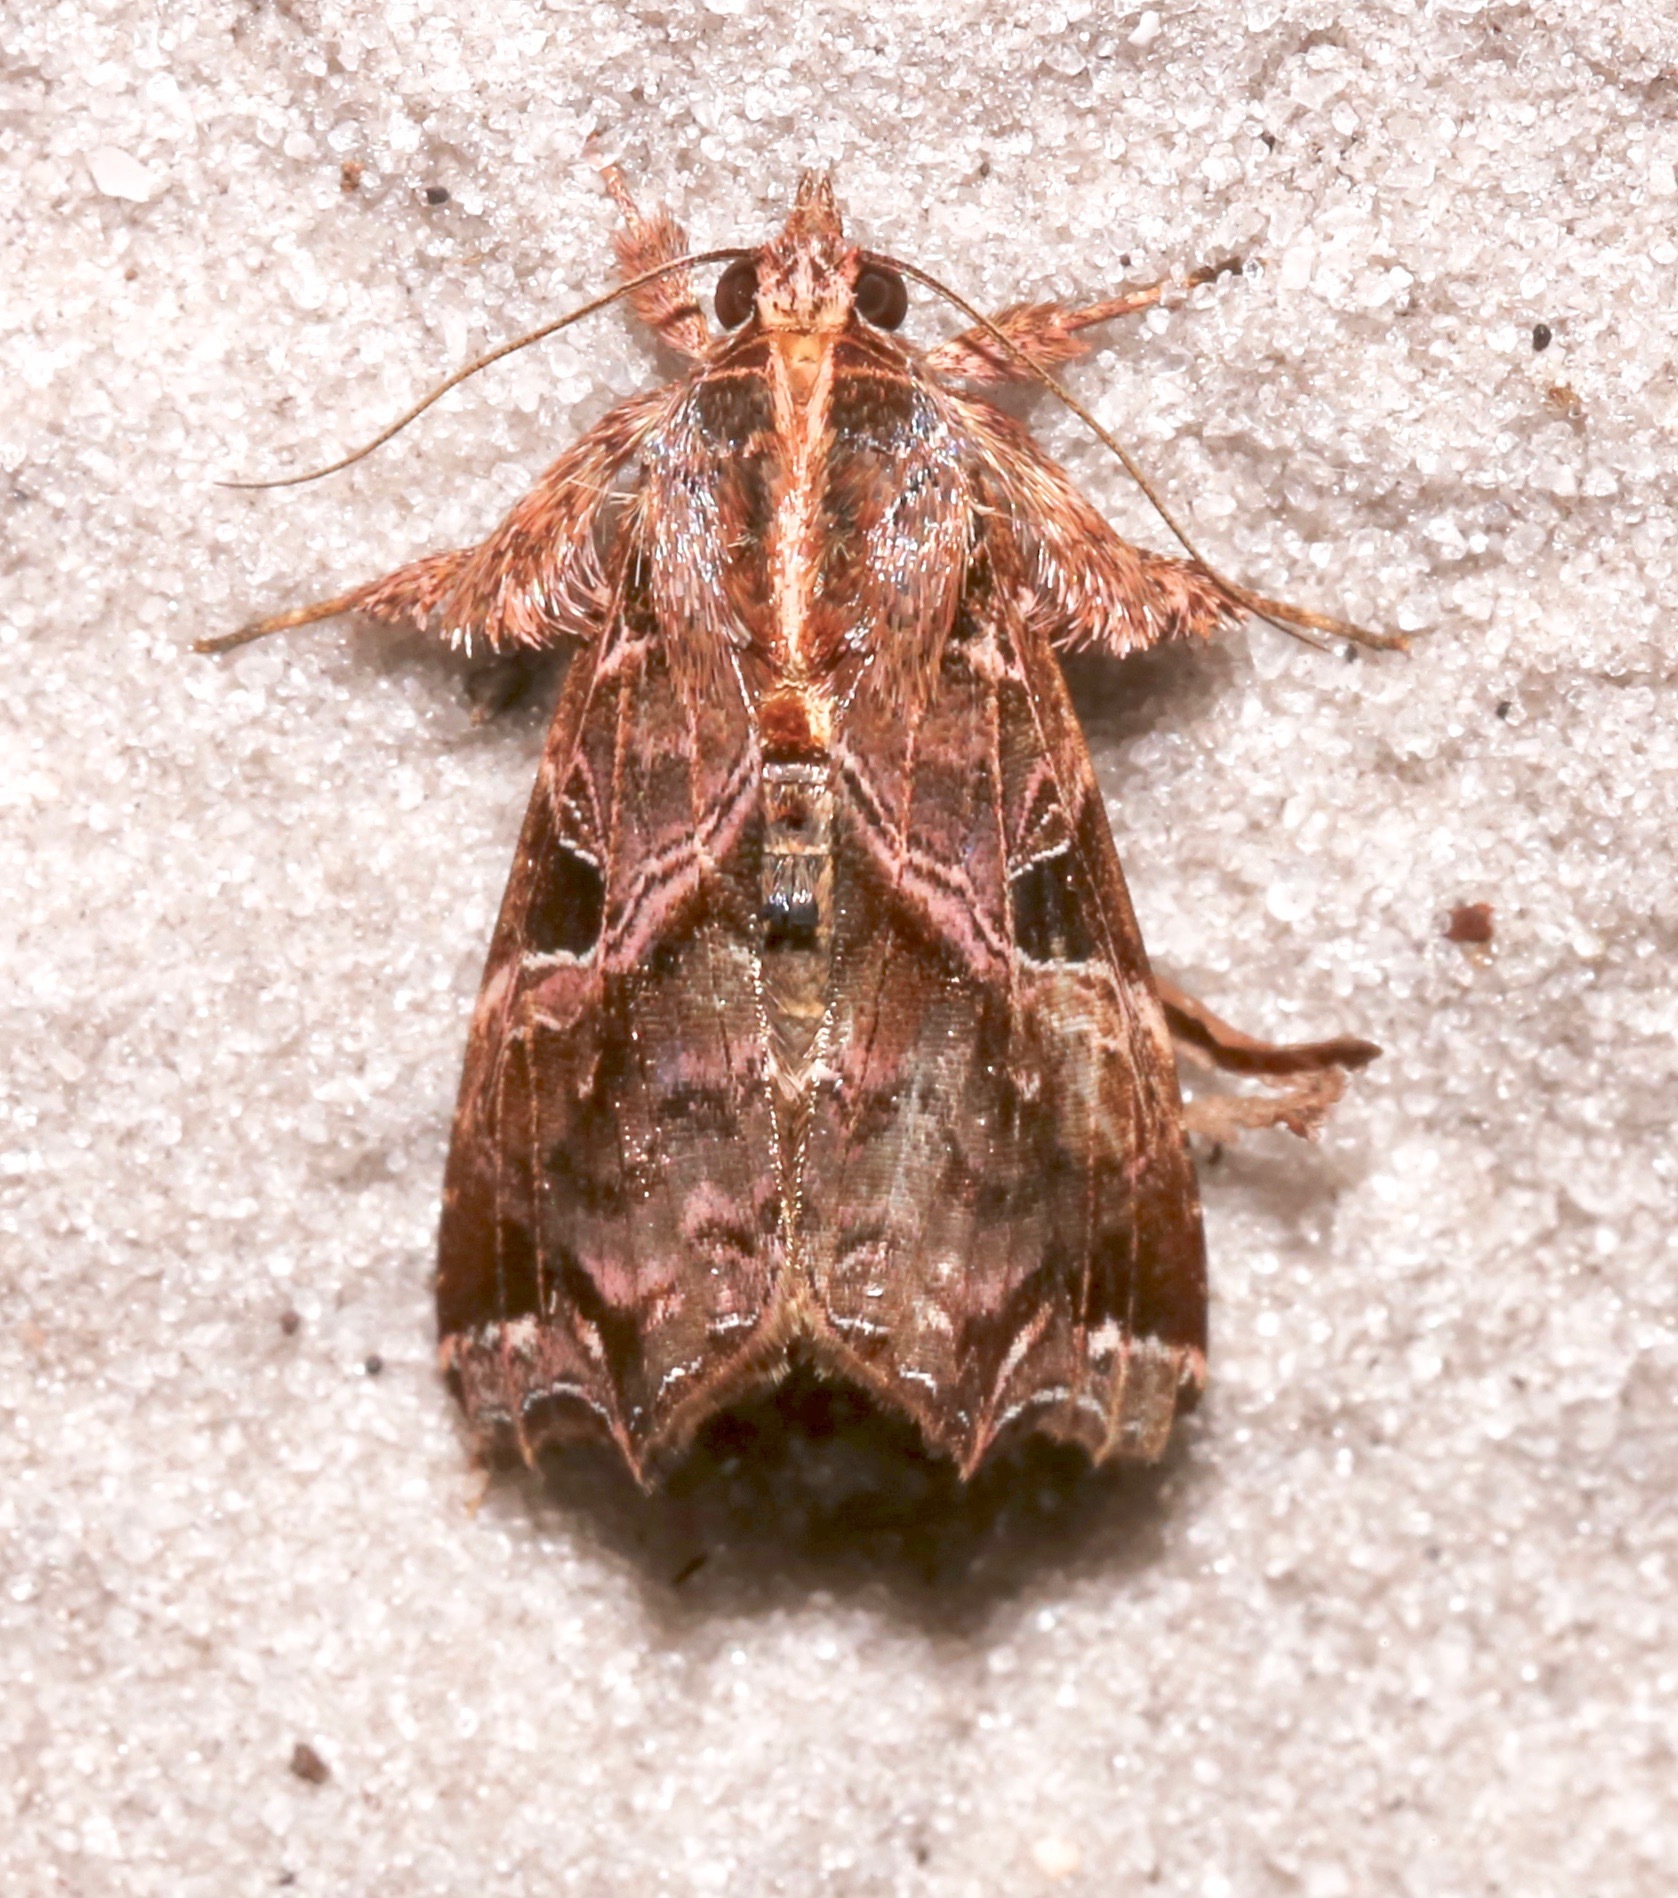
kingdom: Animalia
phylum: Arthropoda
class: Insecta
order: Lepidoptera
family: Noctuidae
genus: Callopistria
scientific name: Callopistria floridensis
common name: Florida fern moth
